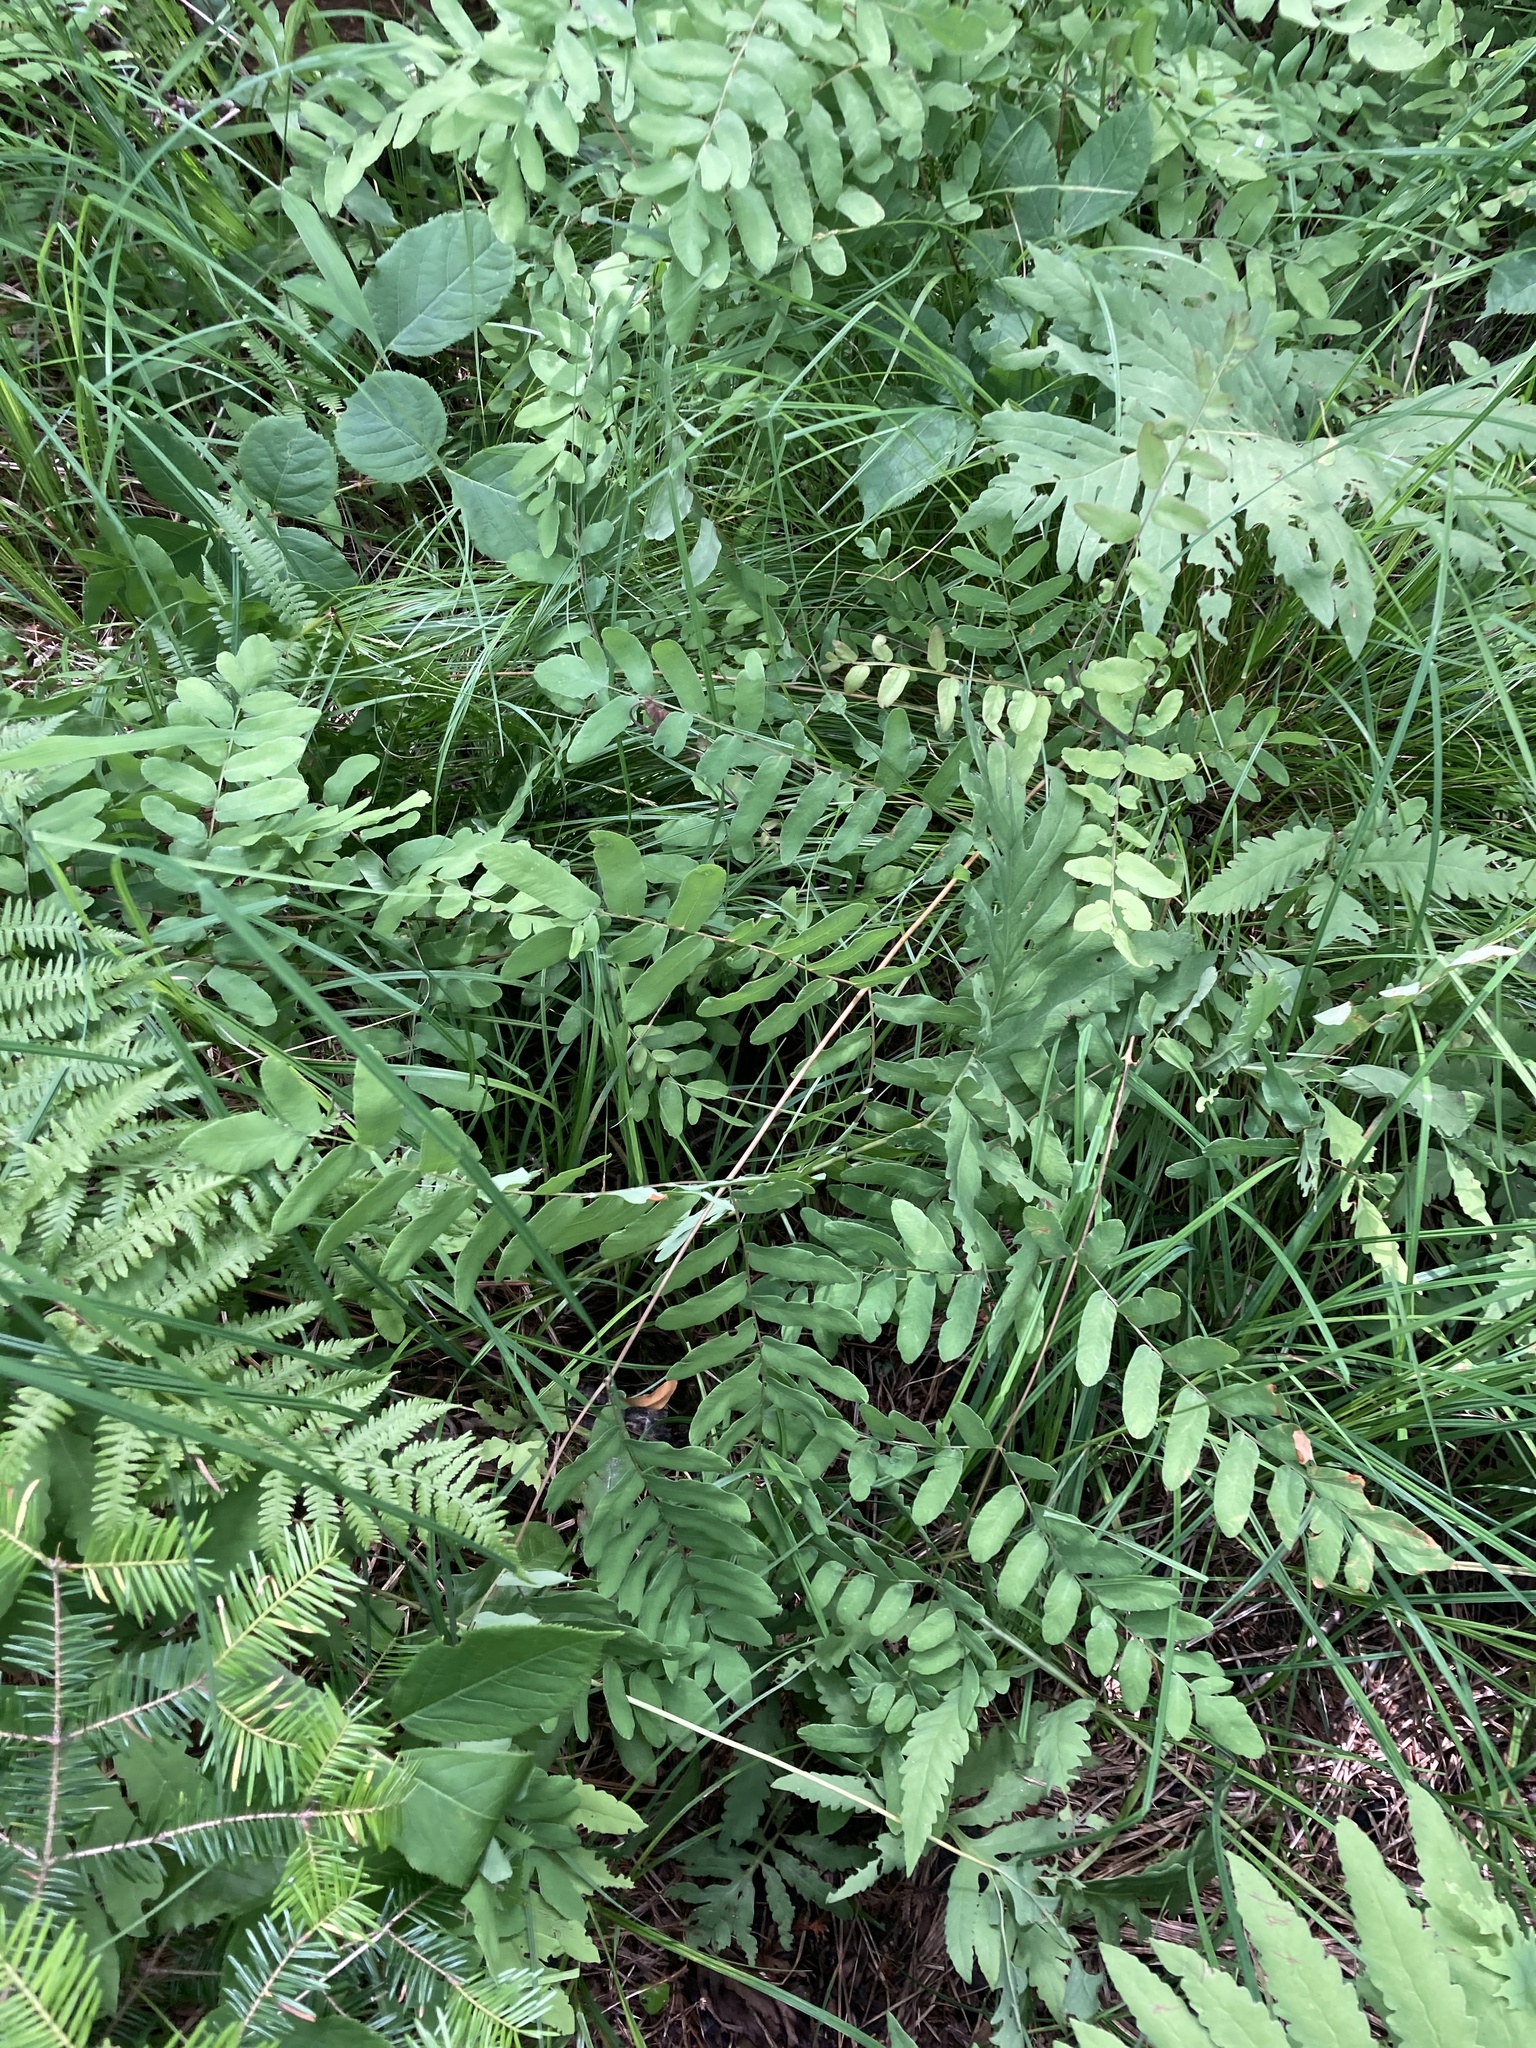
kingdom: Plantae
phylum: Tracheophyta
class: Polypodiopsida
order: Osmundales
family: Osmundaceae
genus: Osmunda
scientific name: Osmunda spectabilis
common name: American royal fern
